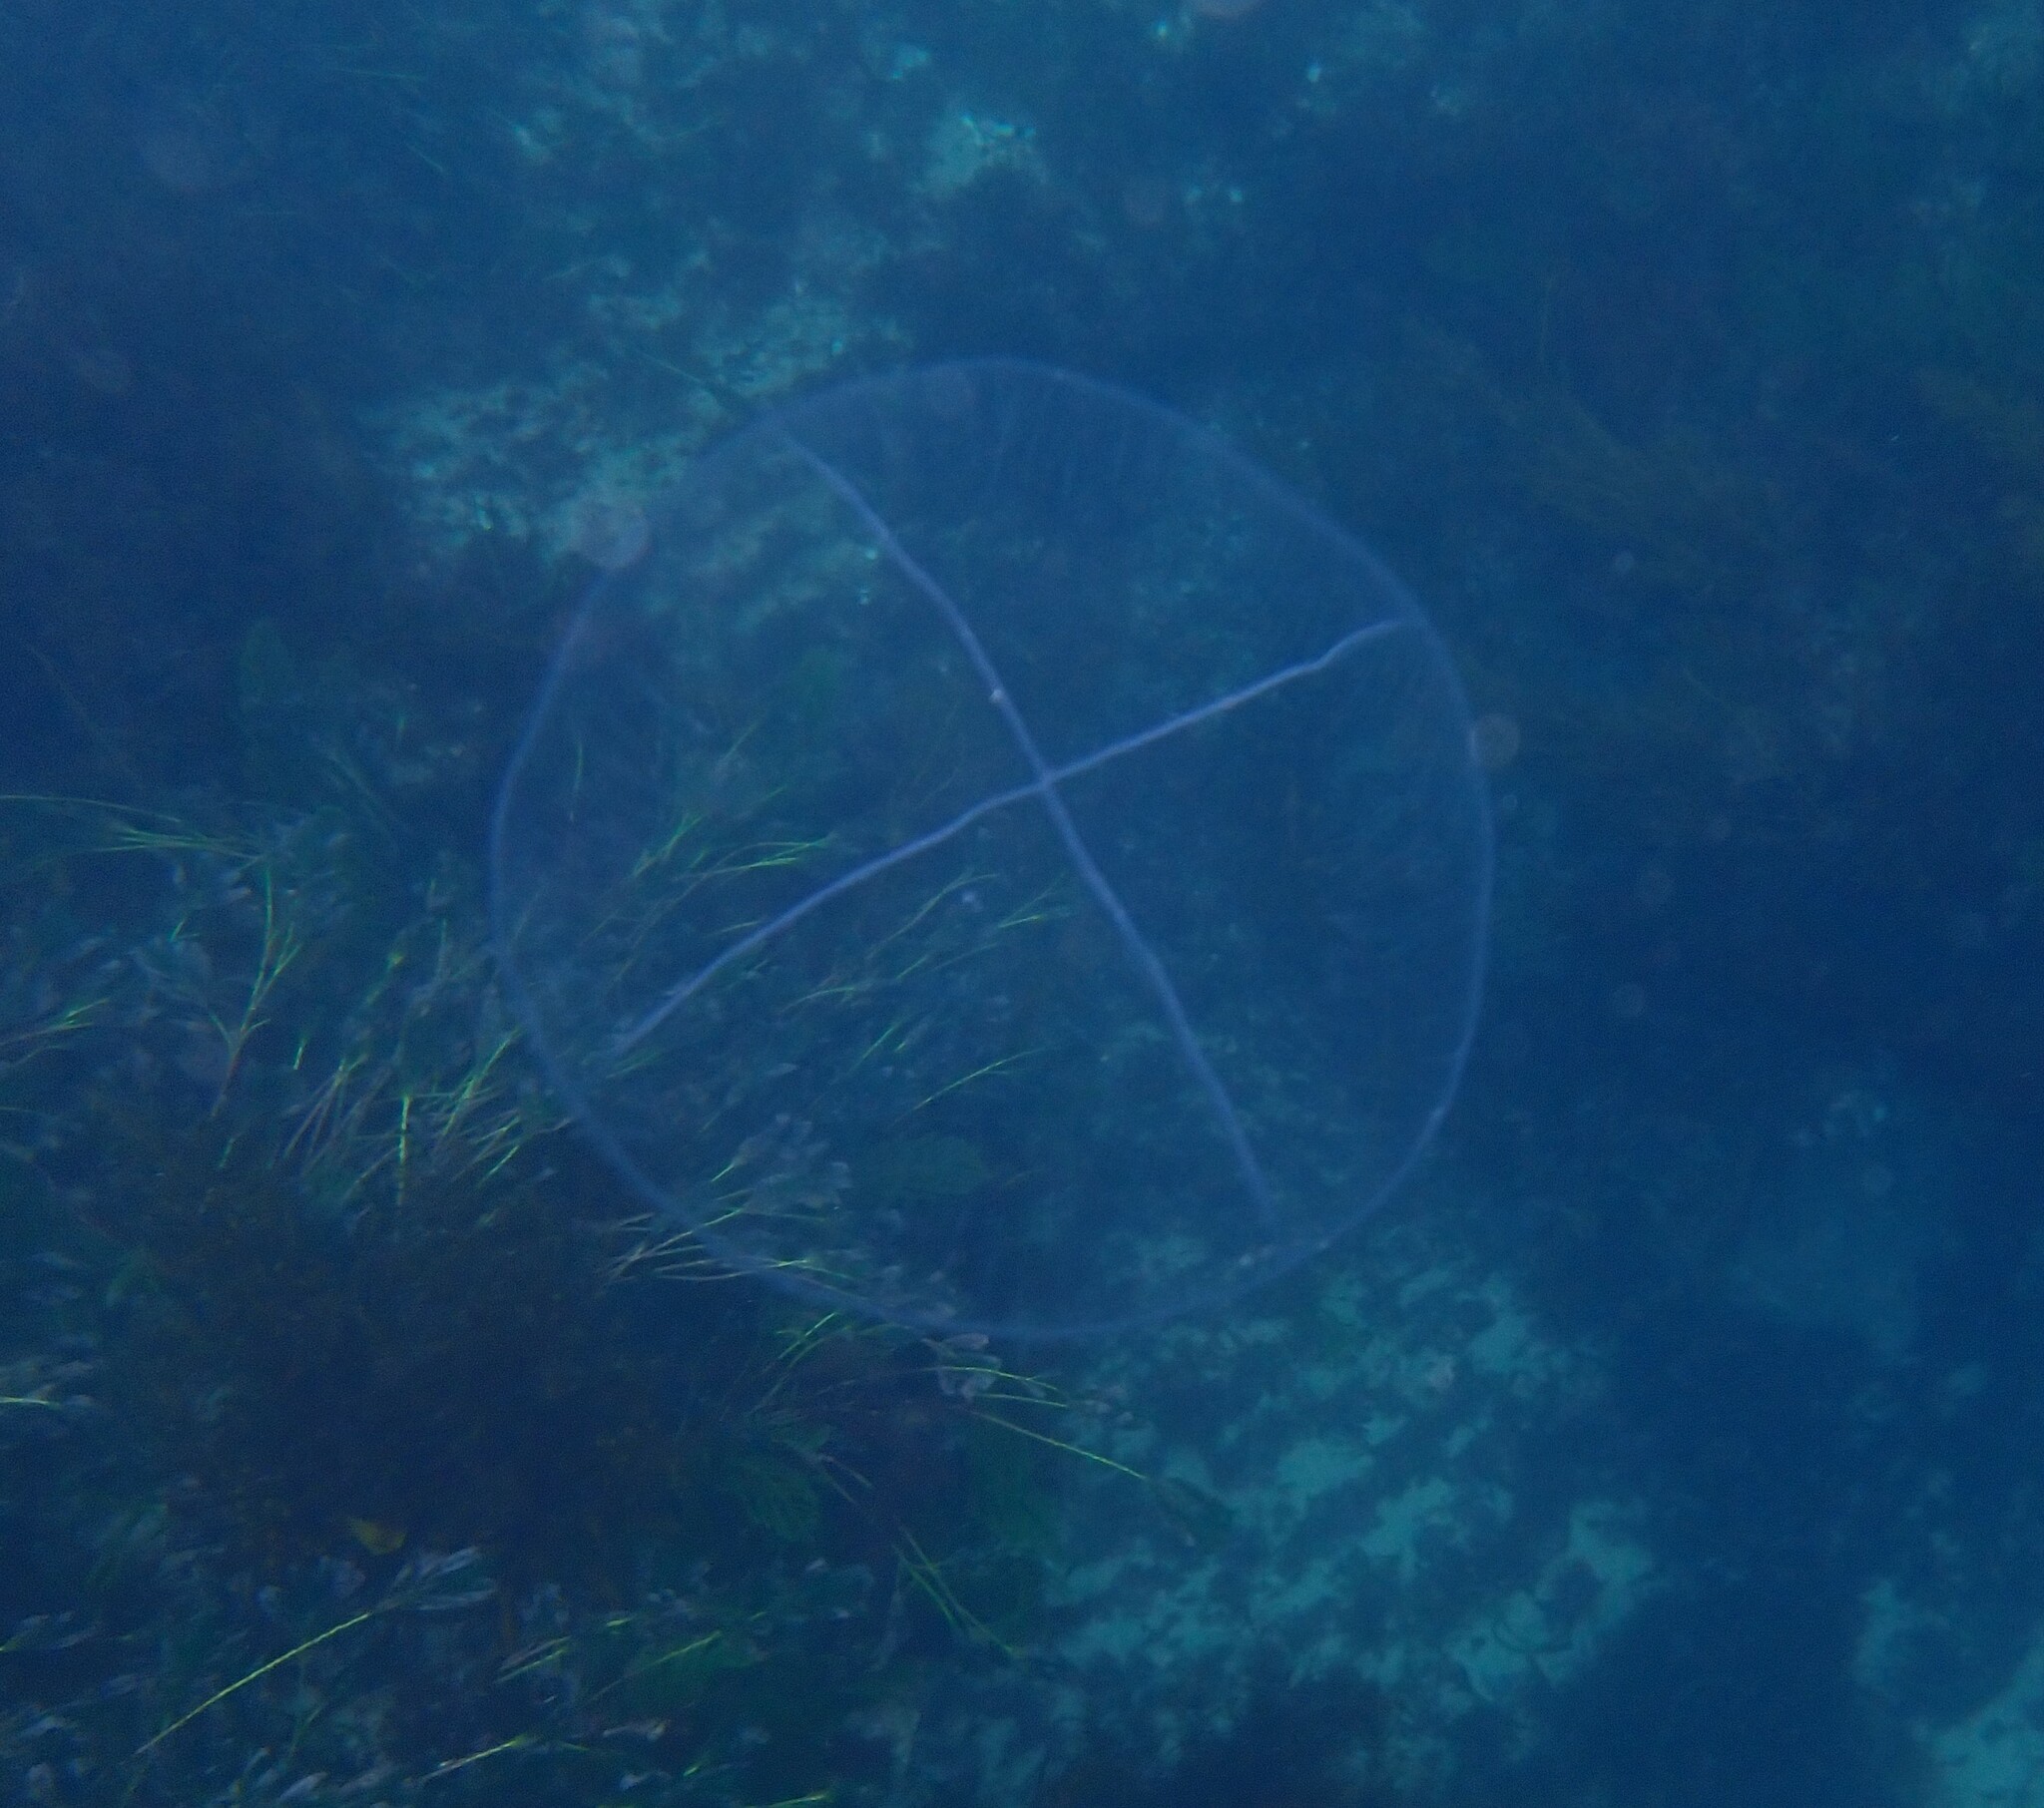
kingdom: Animalia
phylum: Cnidaria
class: Hydrozoa
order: Leptothecata
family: Laodiceidae
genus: Staurostoma
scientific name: Staurostoma falklandica
